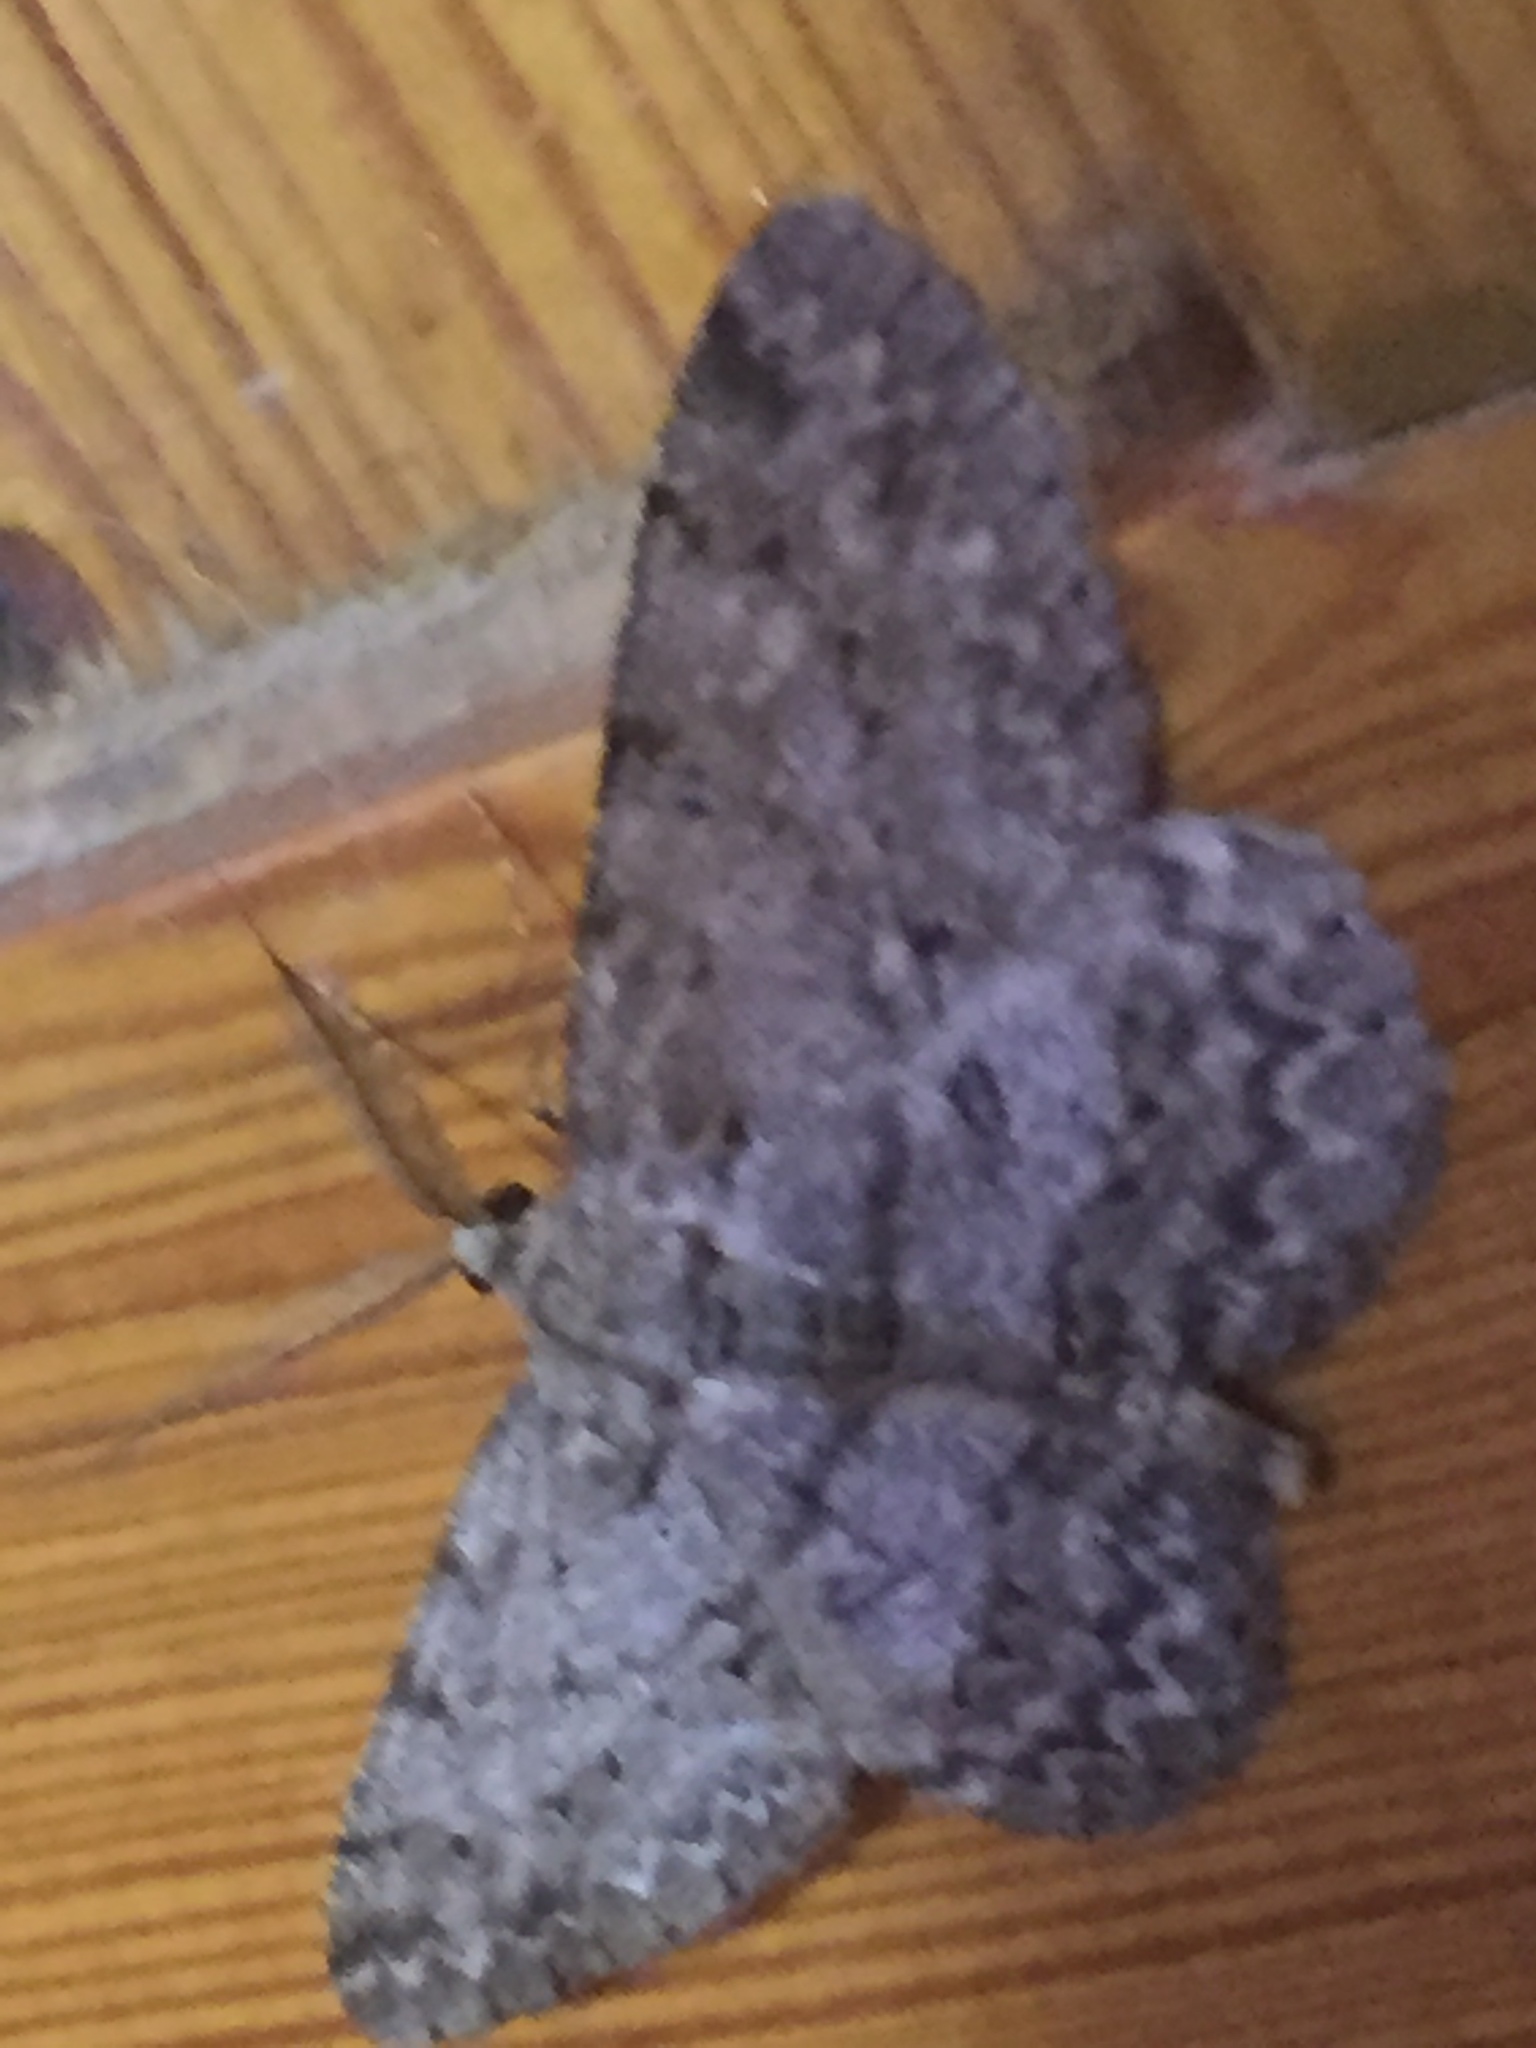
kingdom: Animalia
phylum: Arthropoda
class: Insecta
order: Lepidoptera
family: Geometridae
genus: Hypomecis
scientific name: Hypomecis punctinalis
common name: Pale oak beauty
